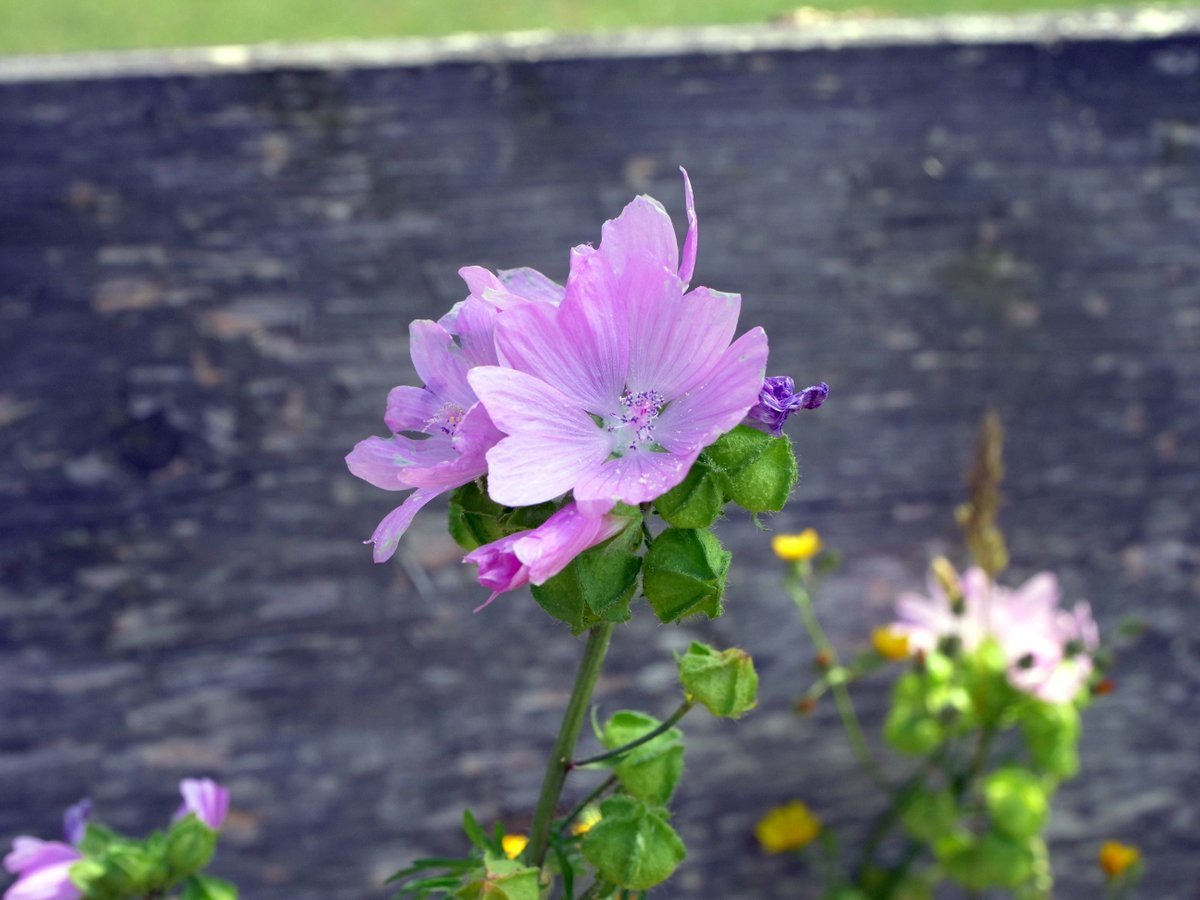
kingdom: Plantae
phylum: Tracheophyta
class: Magnoliopsida
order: Malvales
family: Malvaceae
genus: Malva
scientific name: Malva moschata
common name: Musk mallow
